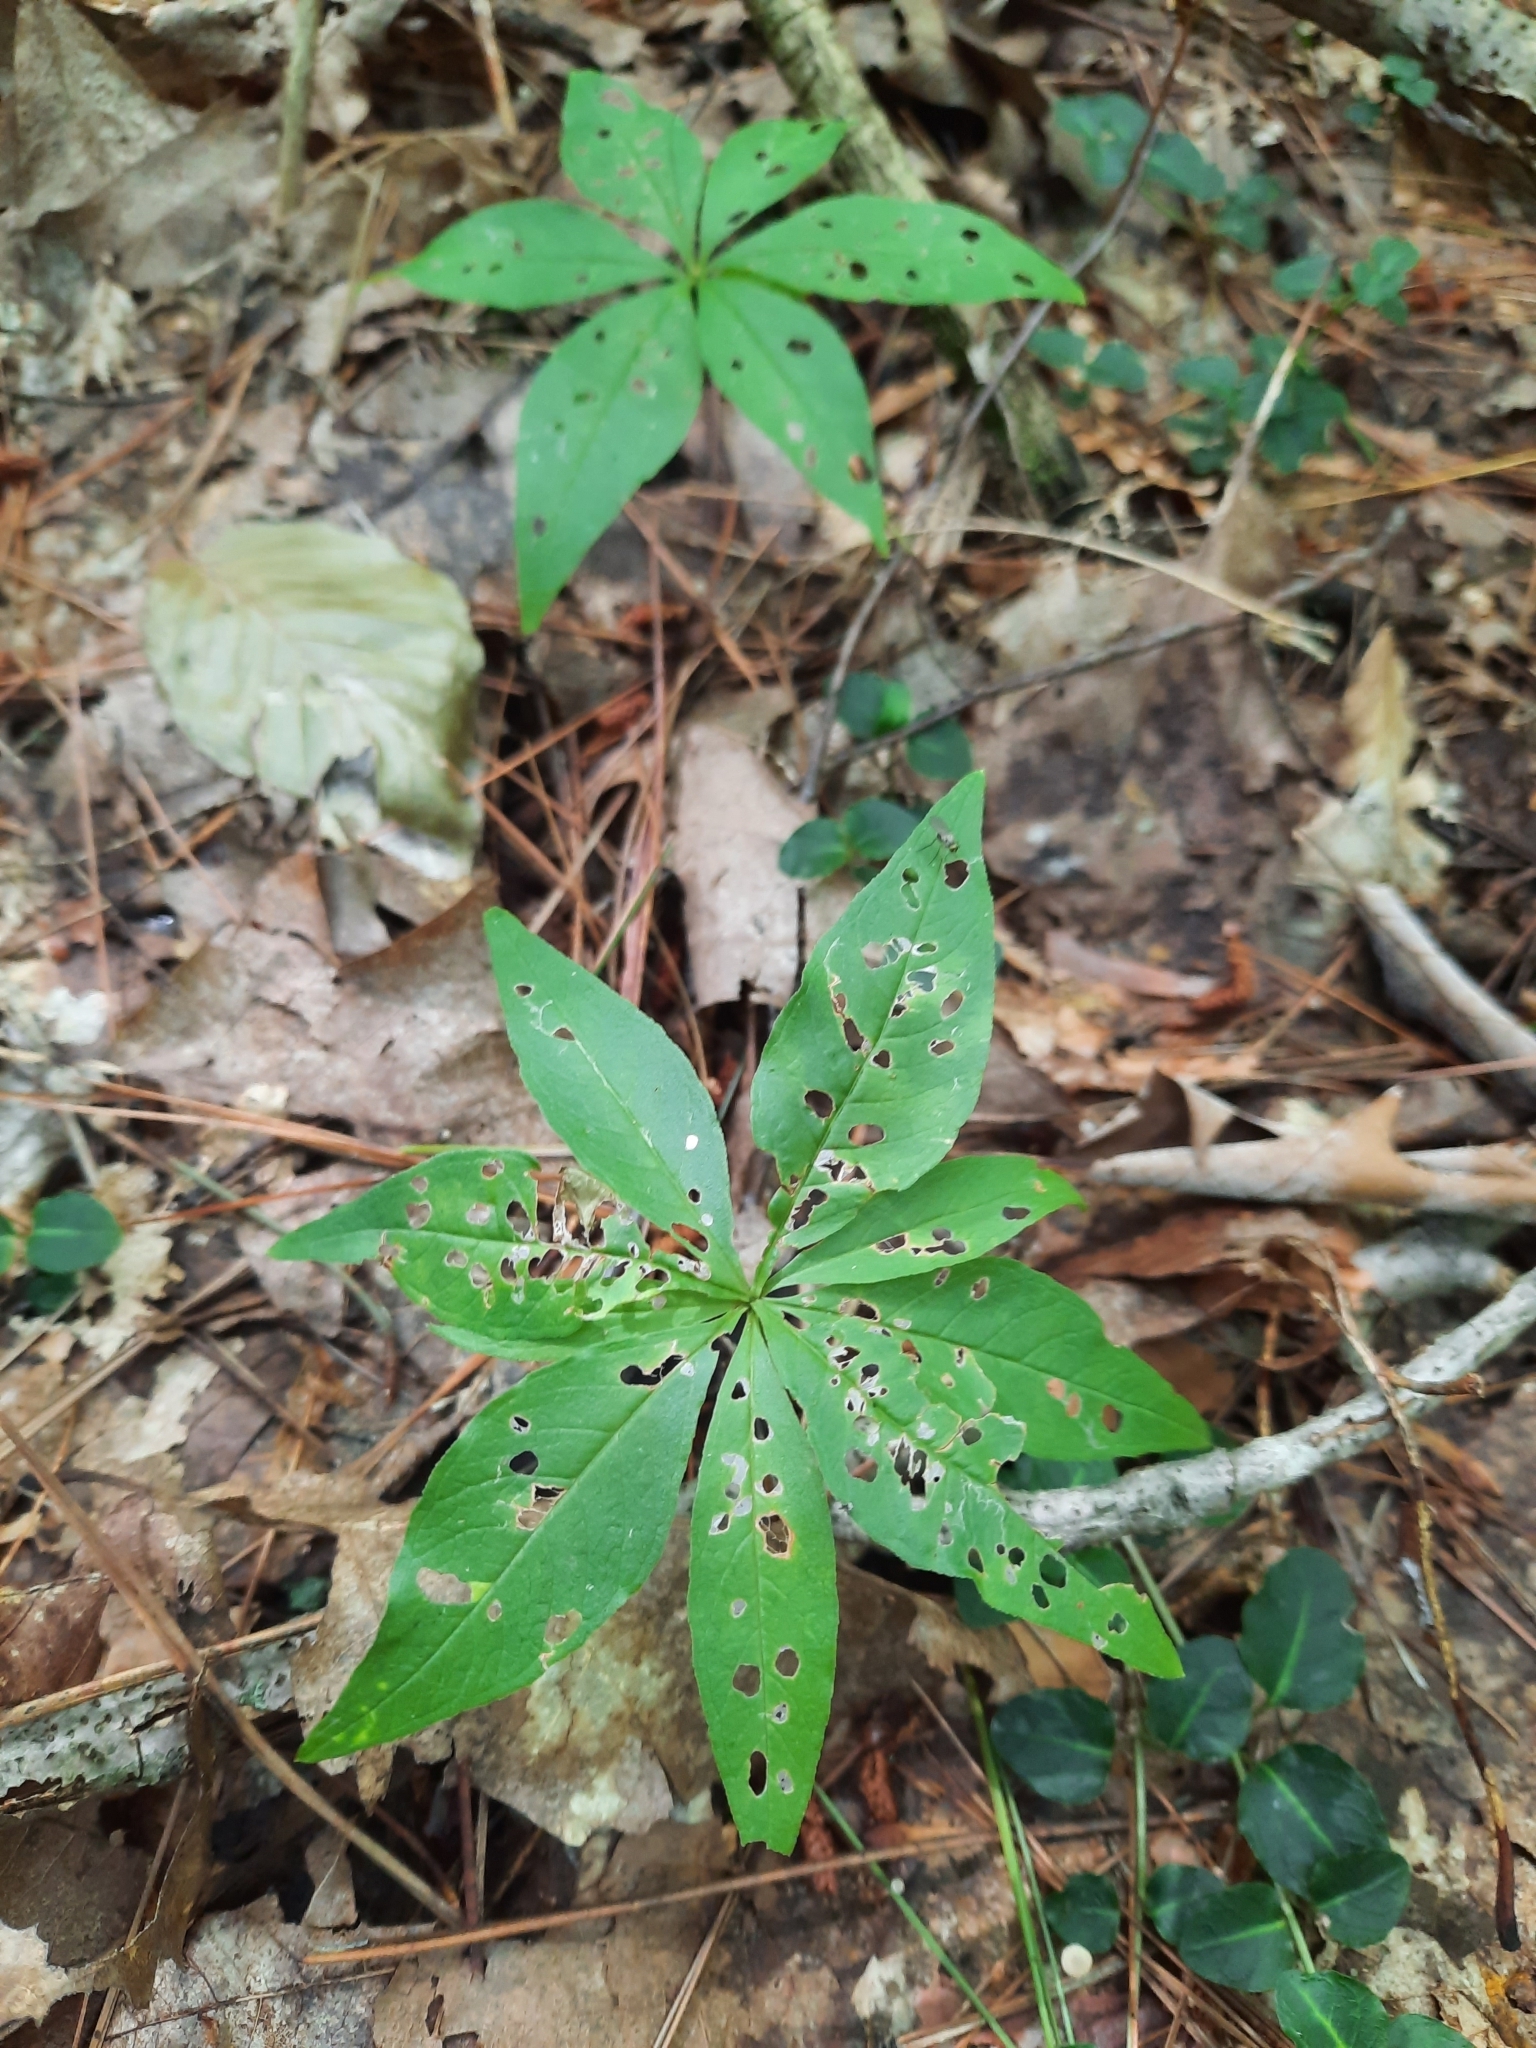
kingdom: Plantae
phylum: Tracheophyta
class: Magnoliopsida
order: Ericales
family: Primulaceae
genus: Lysimachia
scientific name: Lysimachia borealis
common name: American starflower
